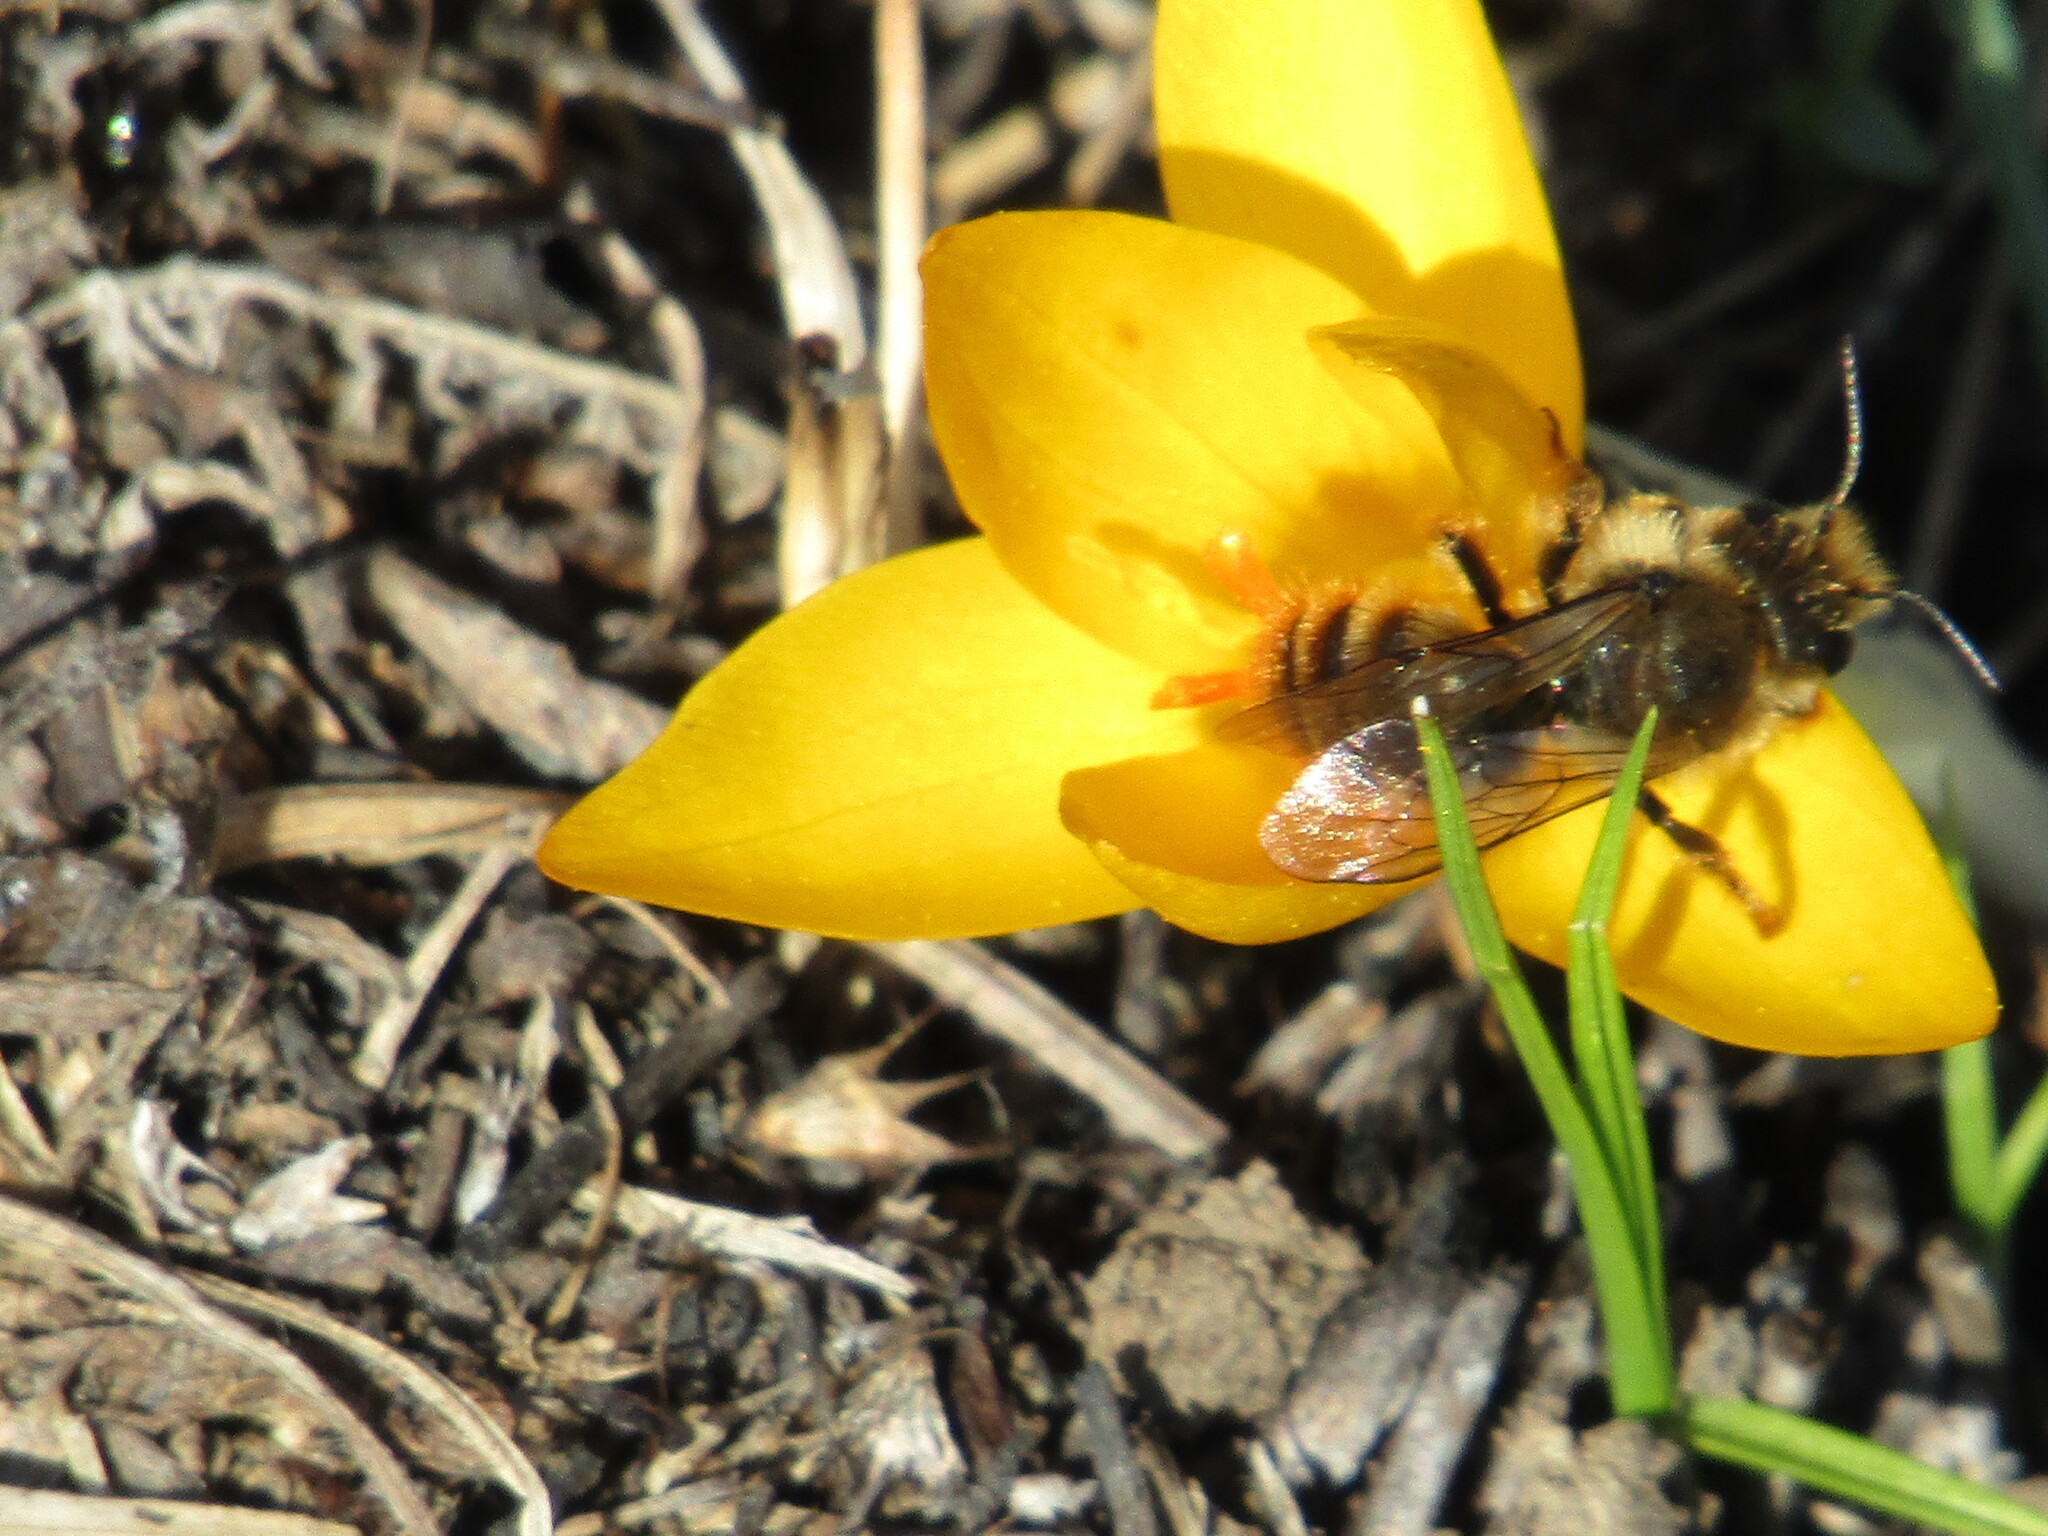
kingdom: Animalia
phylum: Arthropoda
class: Insecta
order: Hymenoptera
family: Megachilidae
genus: Osmia
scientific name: Osmia
